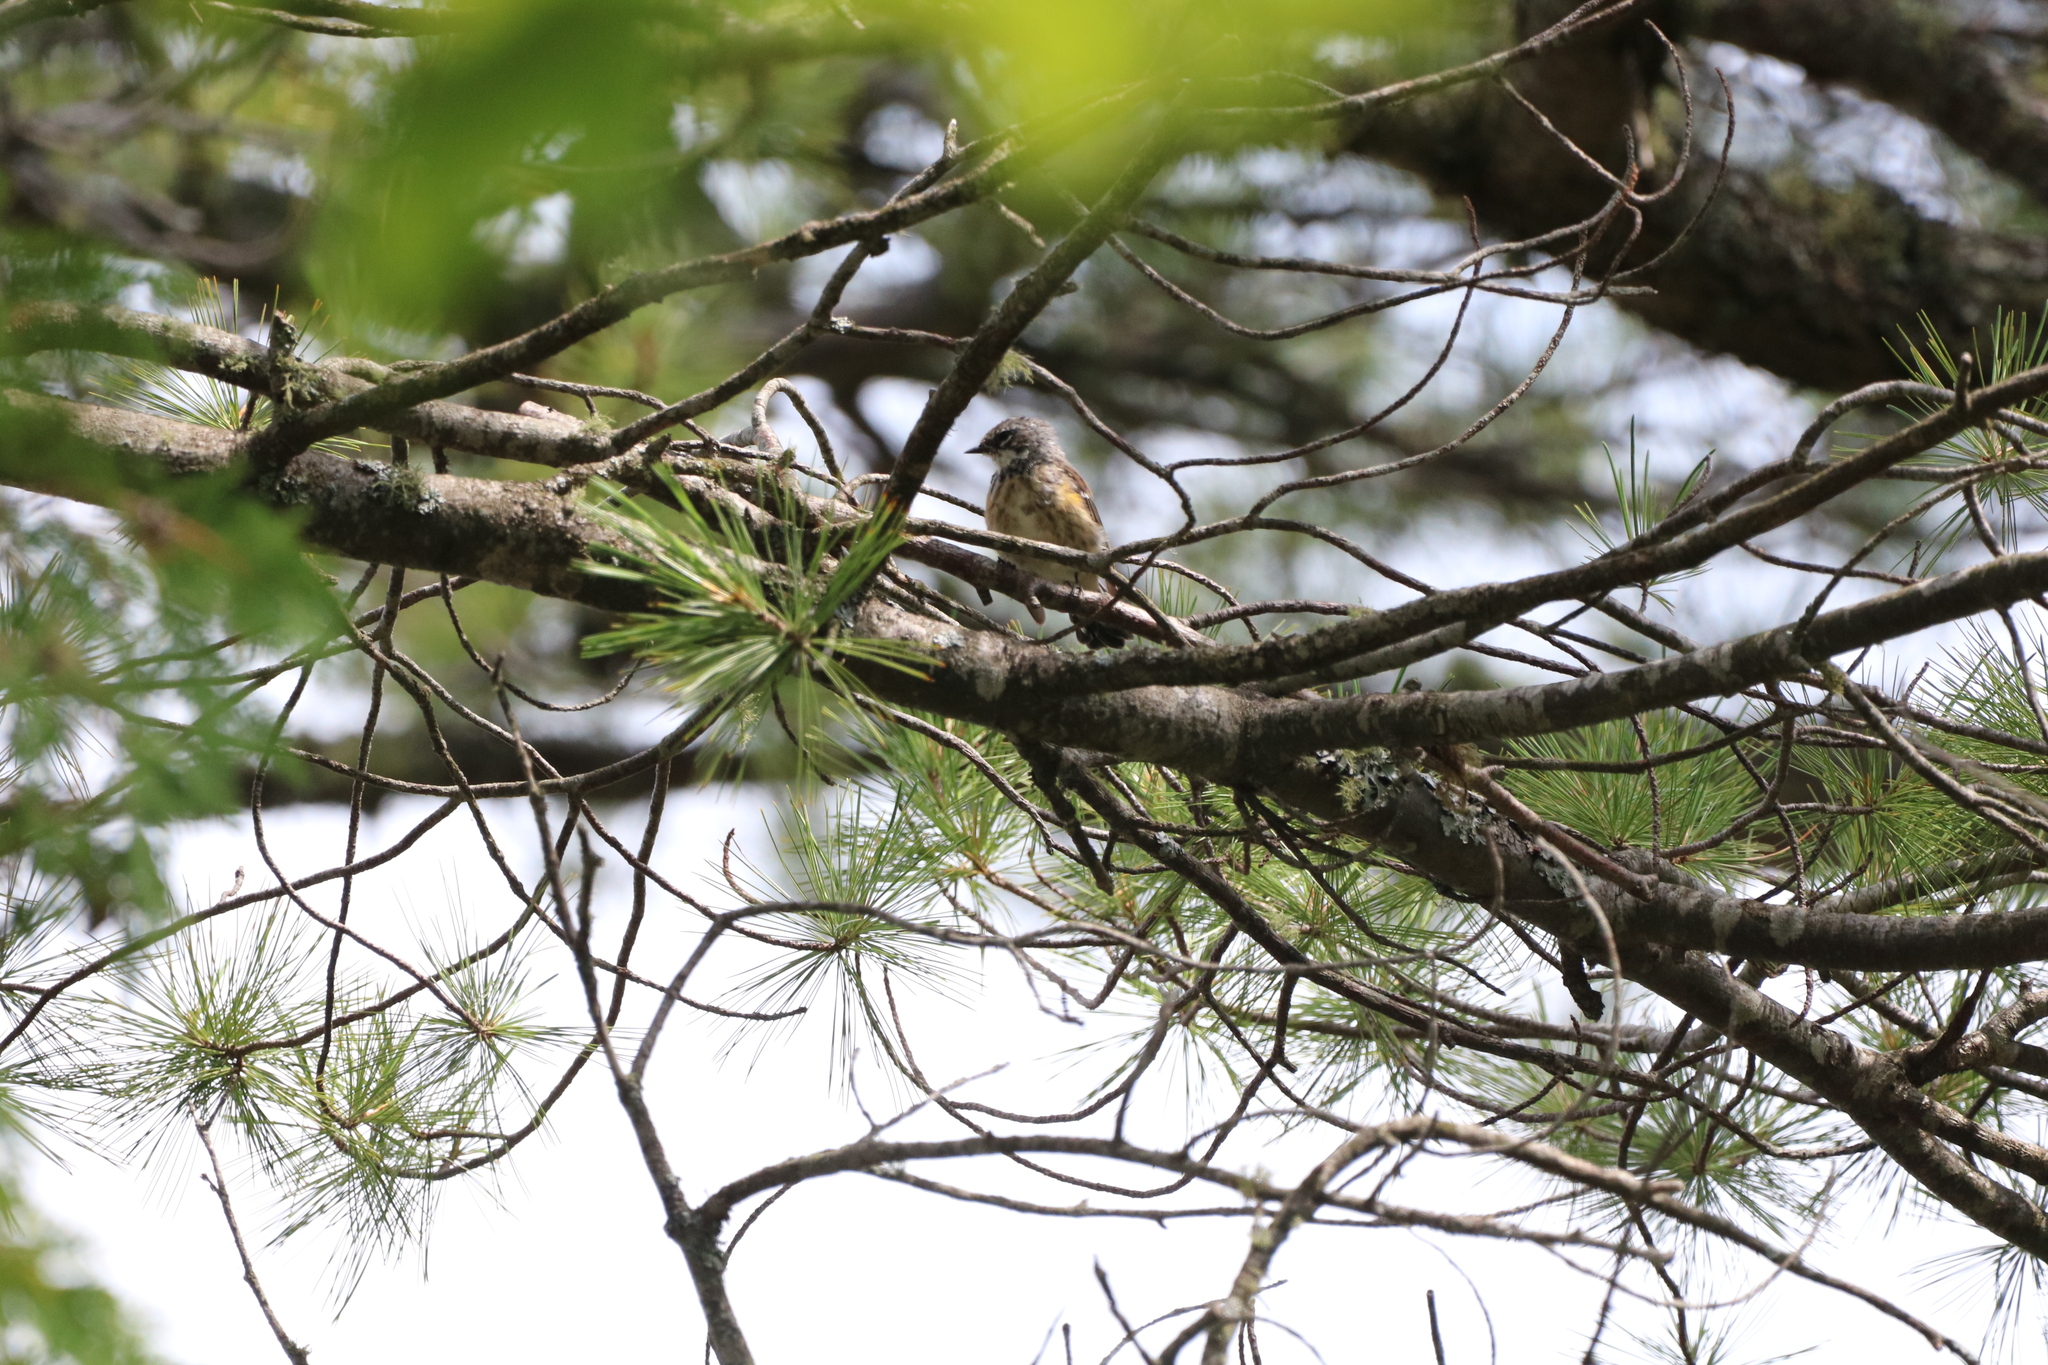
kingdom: Animalia
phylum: Chordata
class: Aves
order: Passeriformes
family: Parulidae
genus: Setophaga
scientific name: Setophaga coronata
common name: Myrtle warbler
